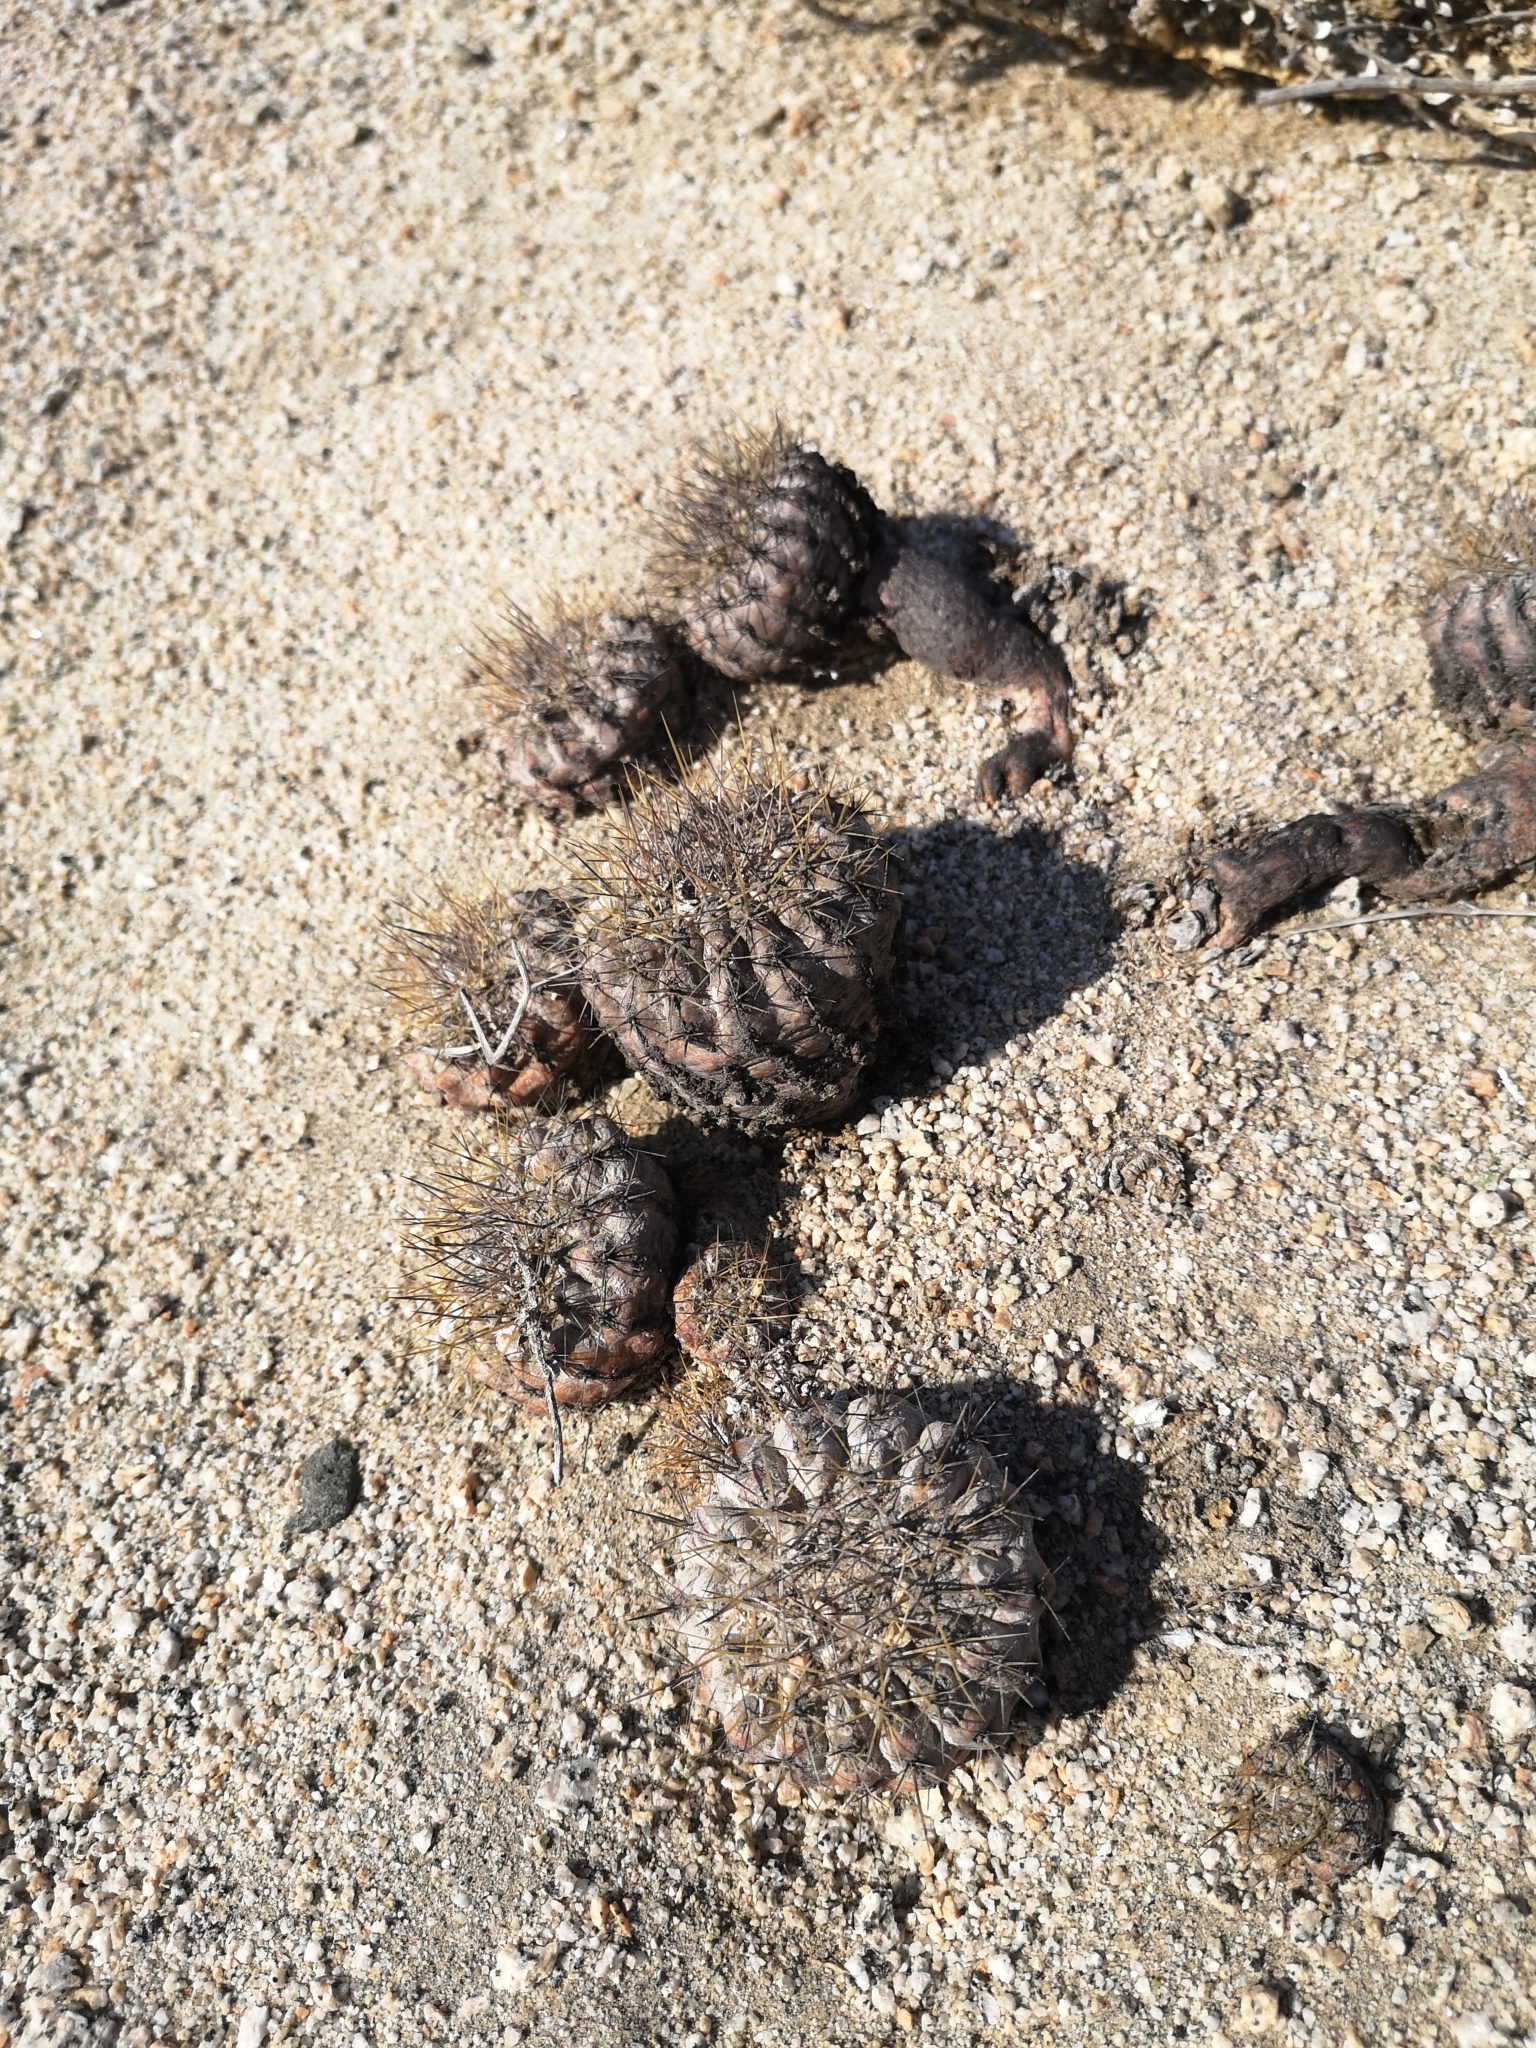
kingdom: Plantae
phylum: Tracheophyta
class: Magnoliopsida
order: Caryophyllales
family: Cactaceae
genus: Copiapoa
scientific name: Copiapoa ahremephiana
